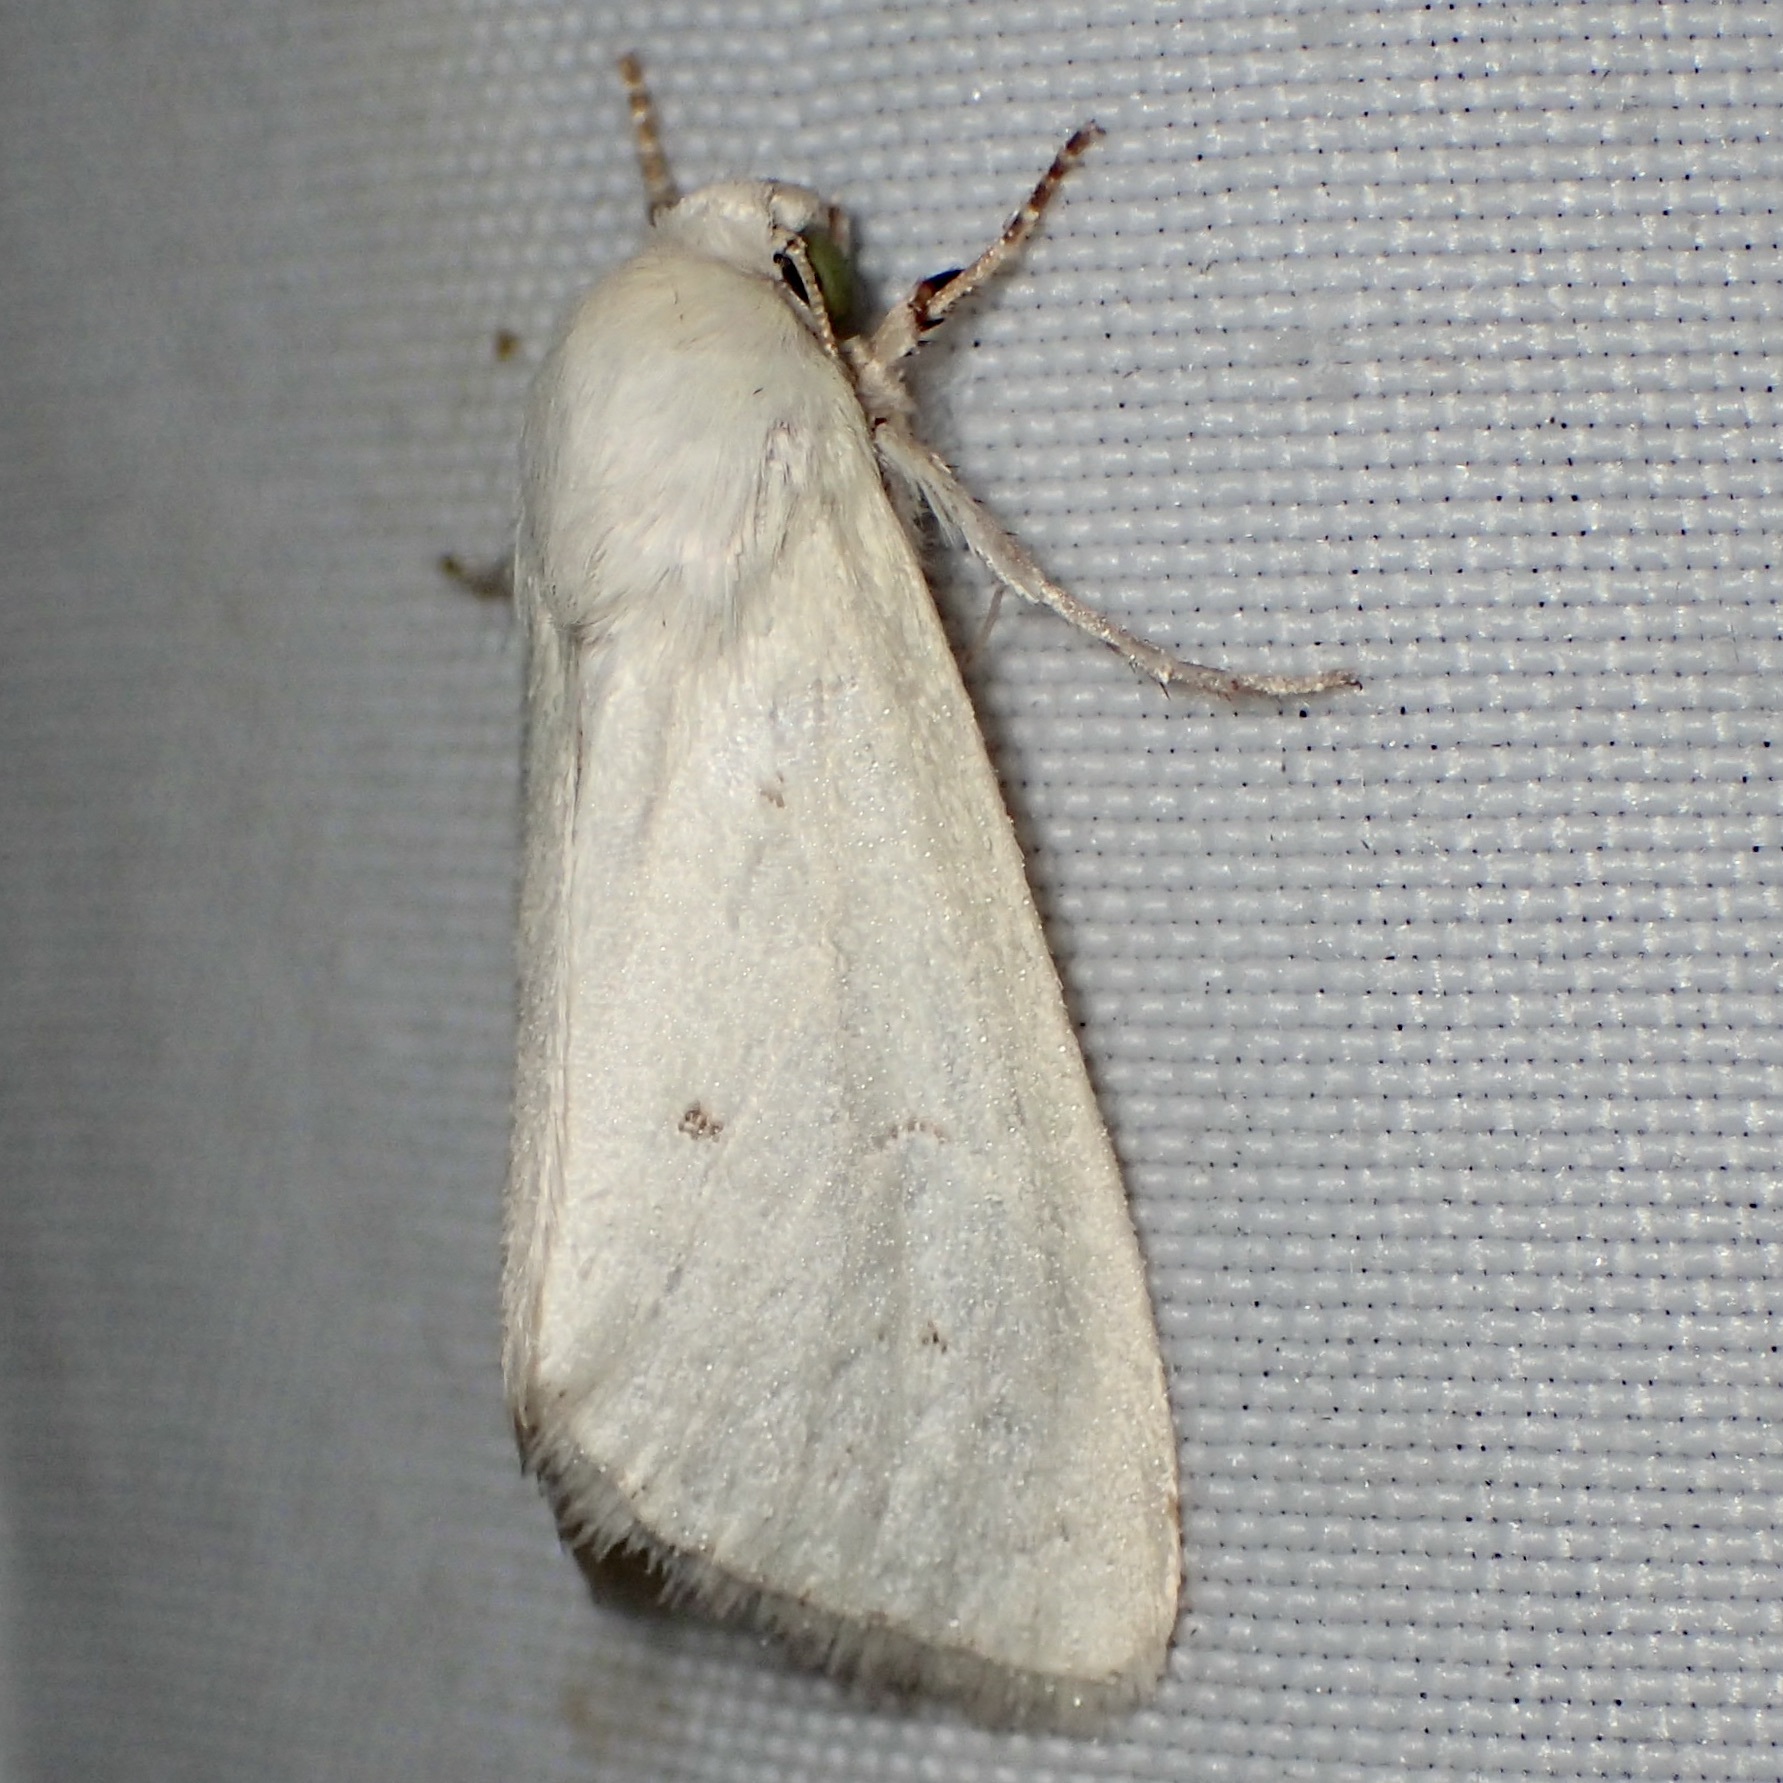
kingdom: Animalia
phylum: Arthropoda
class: Insecta
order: Lepidoptera
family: Noctuidae
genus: Schinia
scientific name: Schinia luxa
